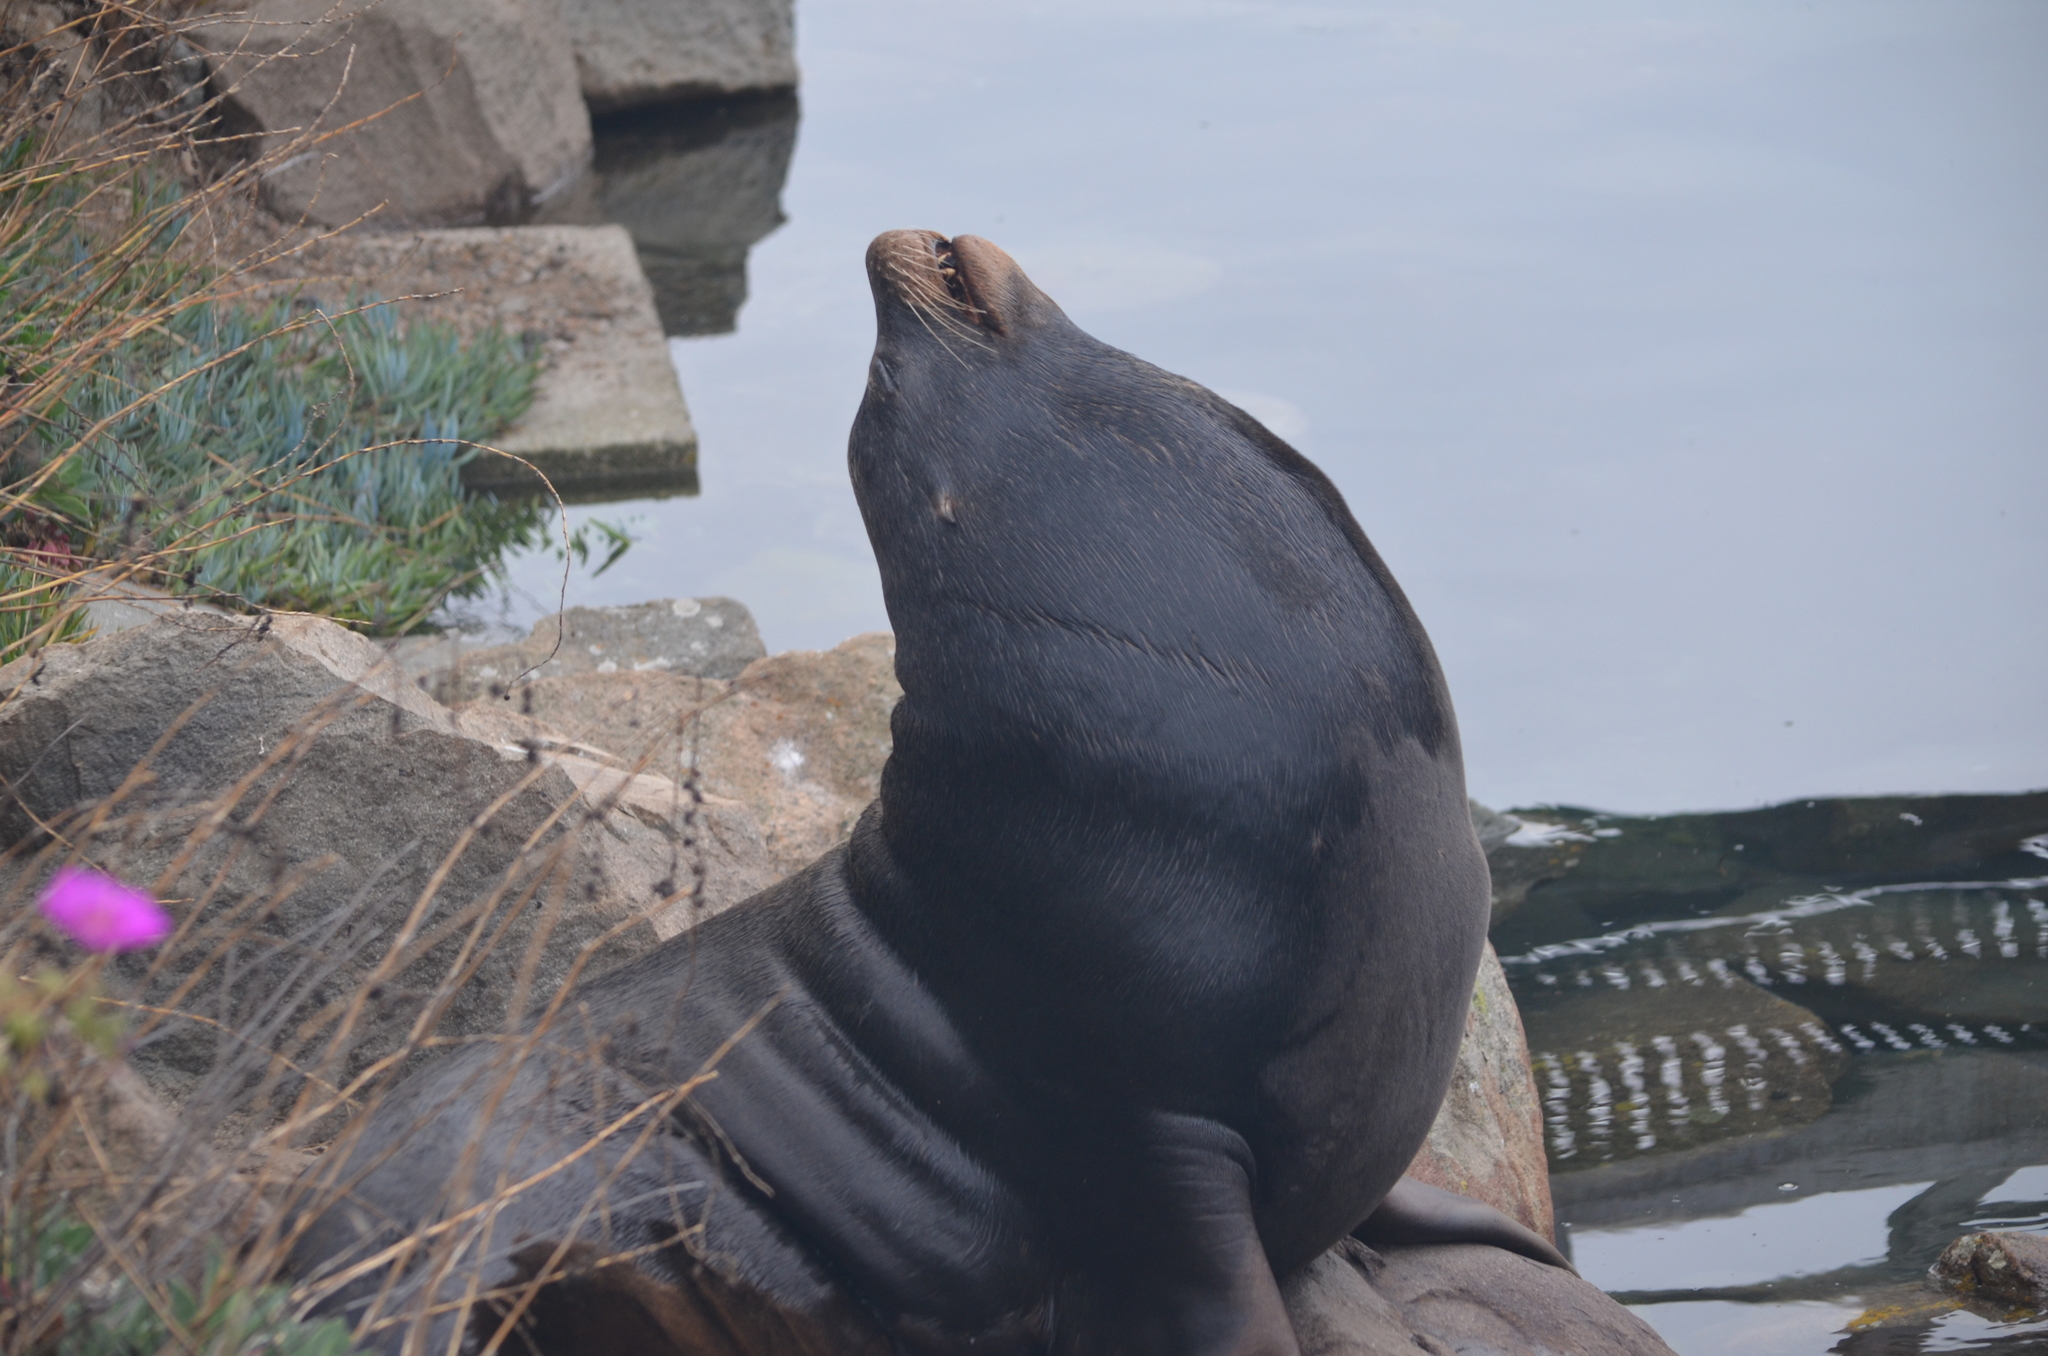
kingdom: Animalia
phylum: Chordata
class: Mammalia
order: Carnivora
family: Otariidae
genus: Zalophus
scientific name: Zalophus californianus
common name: California sea lion
